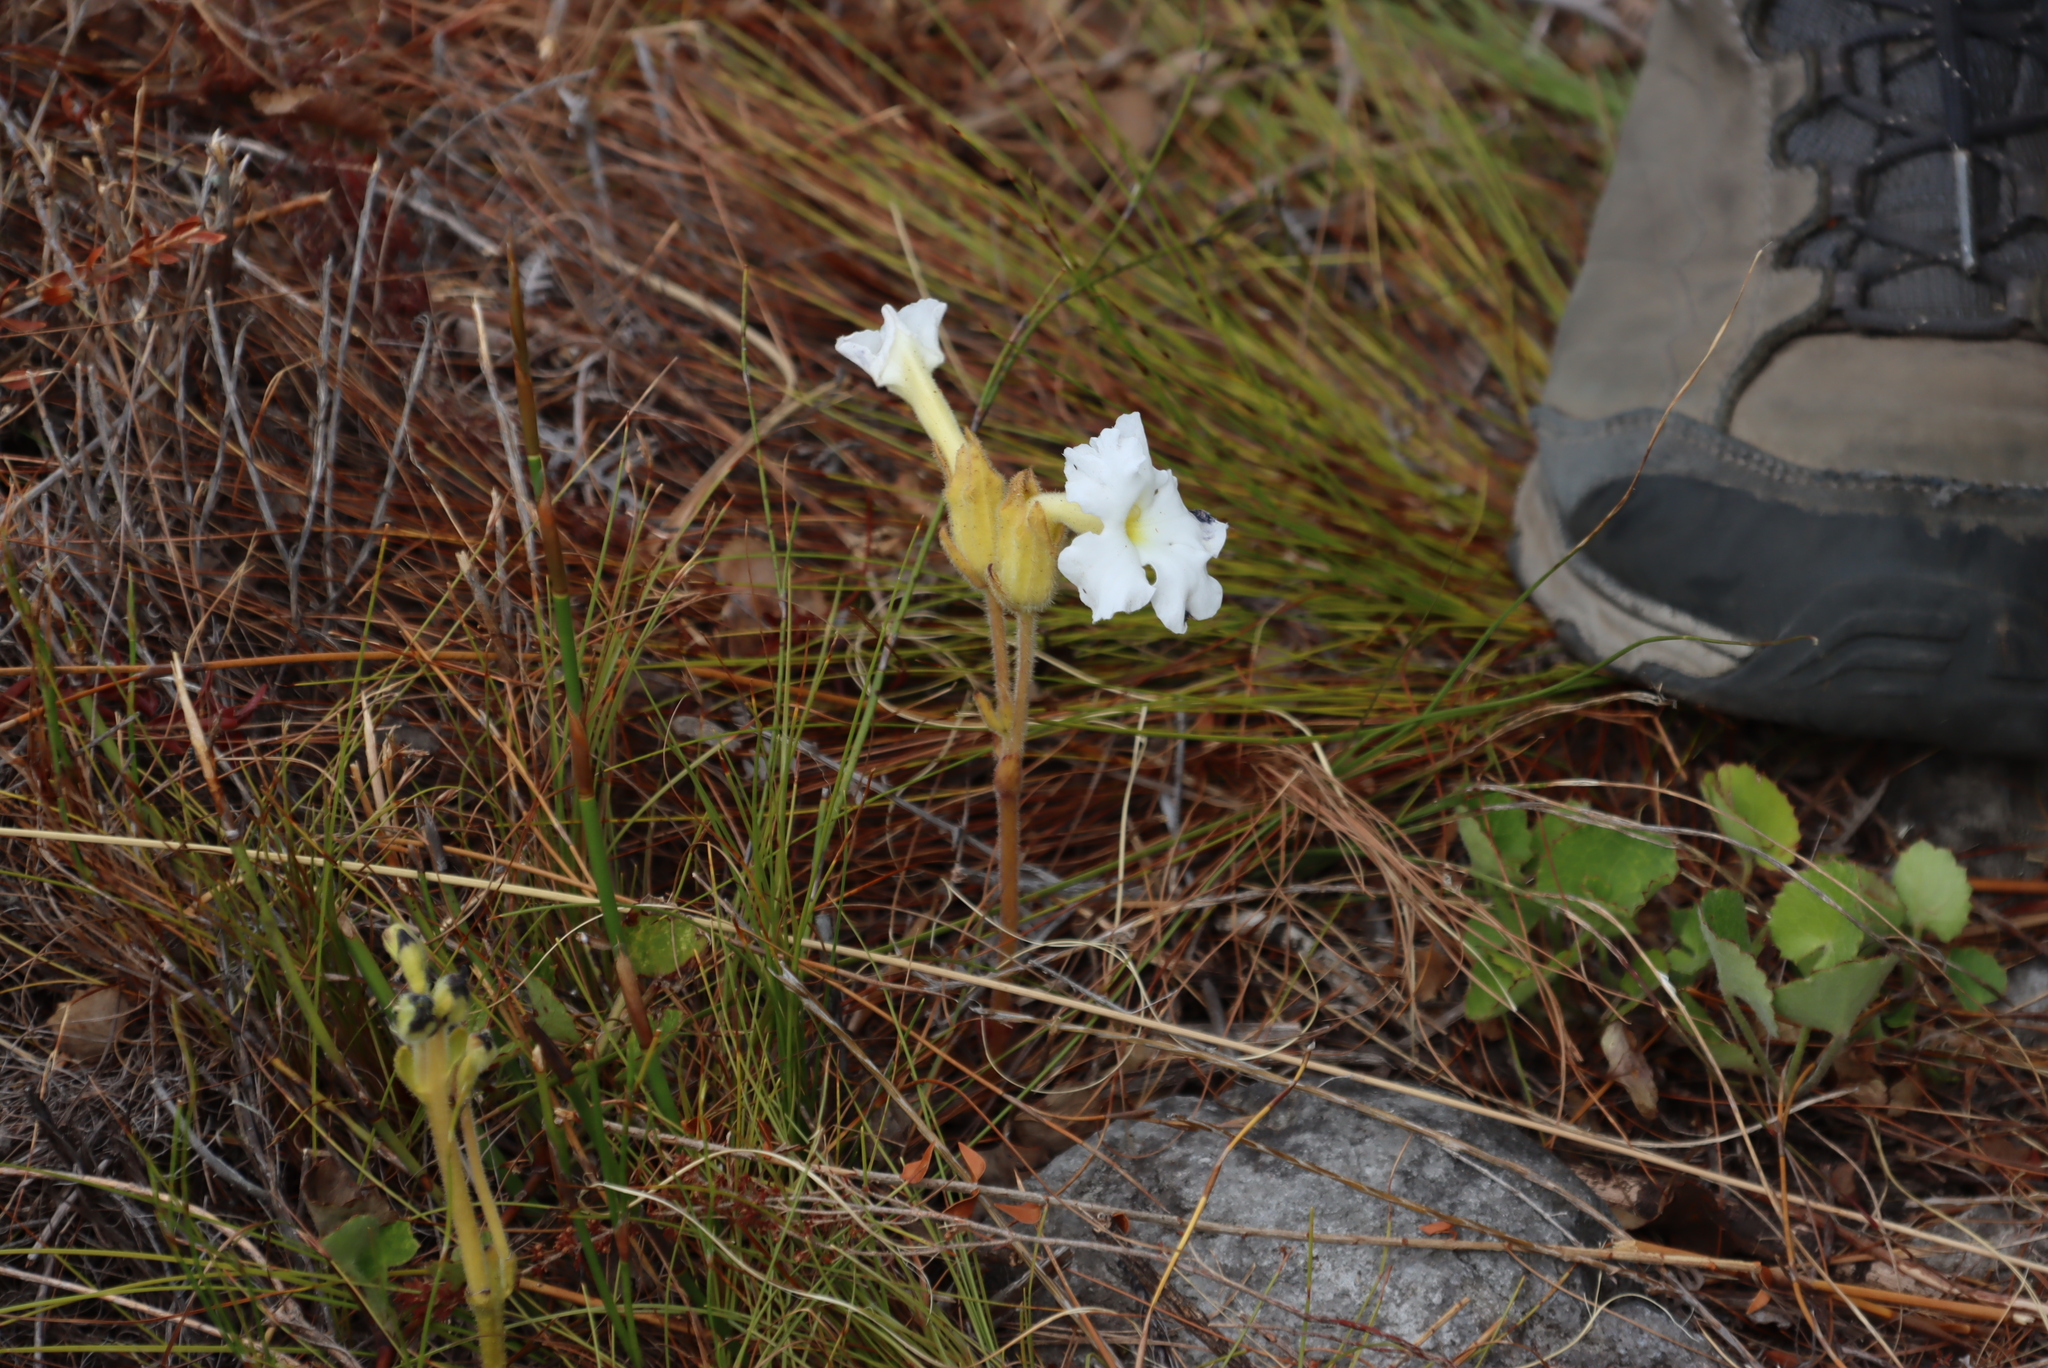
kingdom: Plantae
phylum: Tracheophyta
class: Magnoliopsida
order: Lamiales
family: Orobanchaceae
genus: Harveya
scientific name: Harveya capensis
